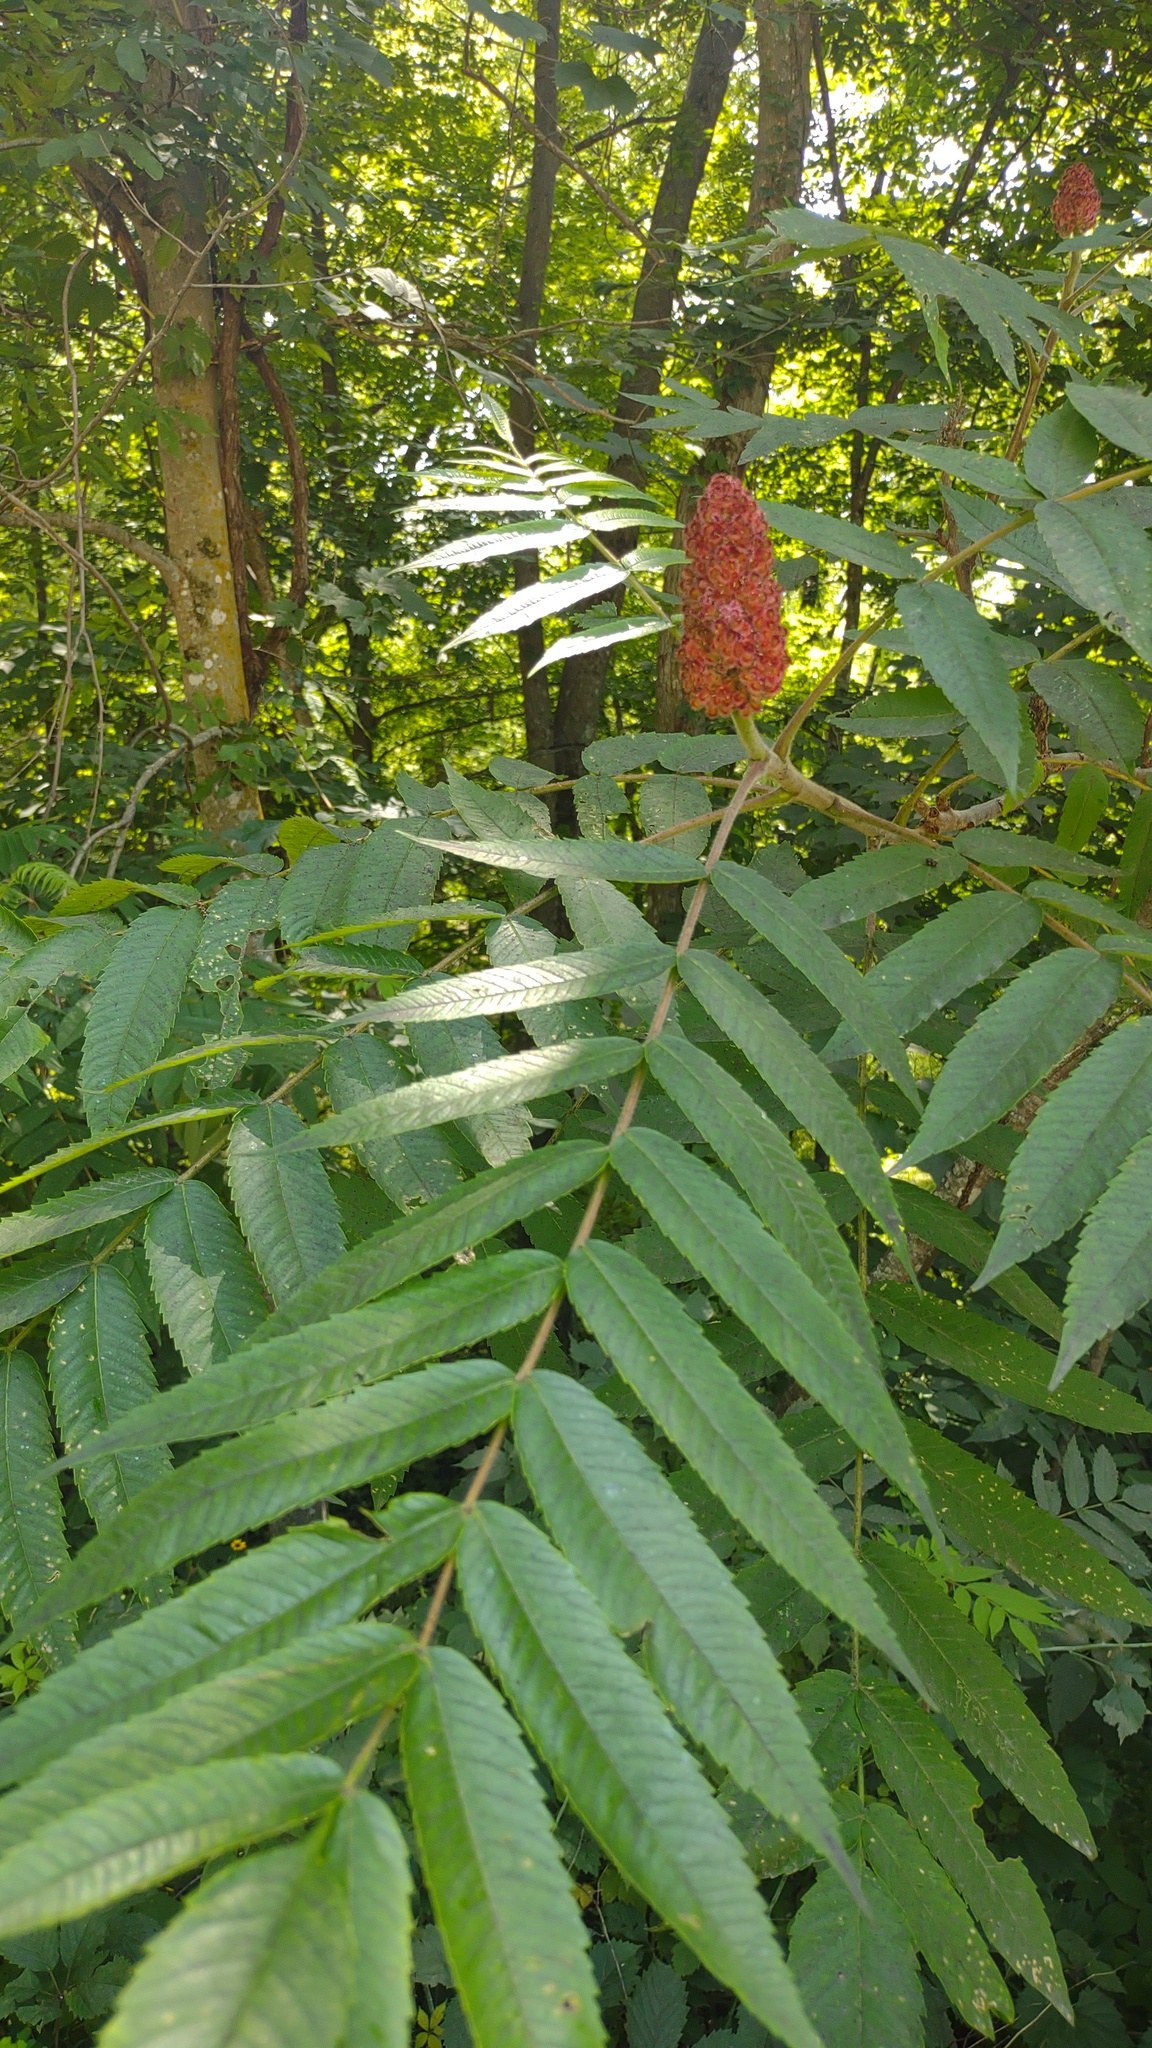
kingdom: Plantae
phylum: Tracheophyta
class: Magnoliopsida
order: Sapindales
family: Anacardiaceae
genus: Rhus
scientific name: Rhus typhina
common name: Staghorn sumac
